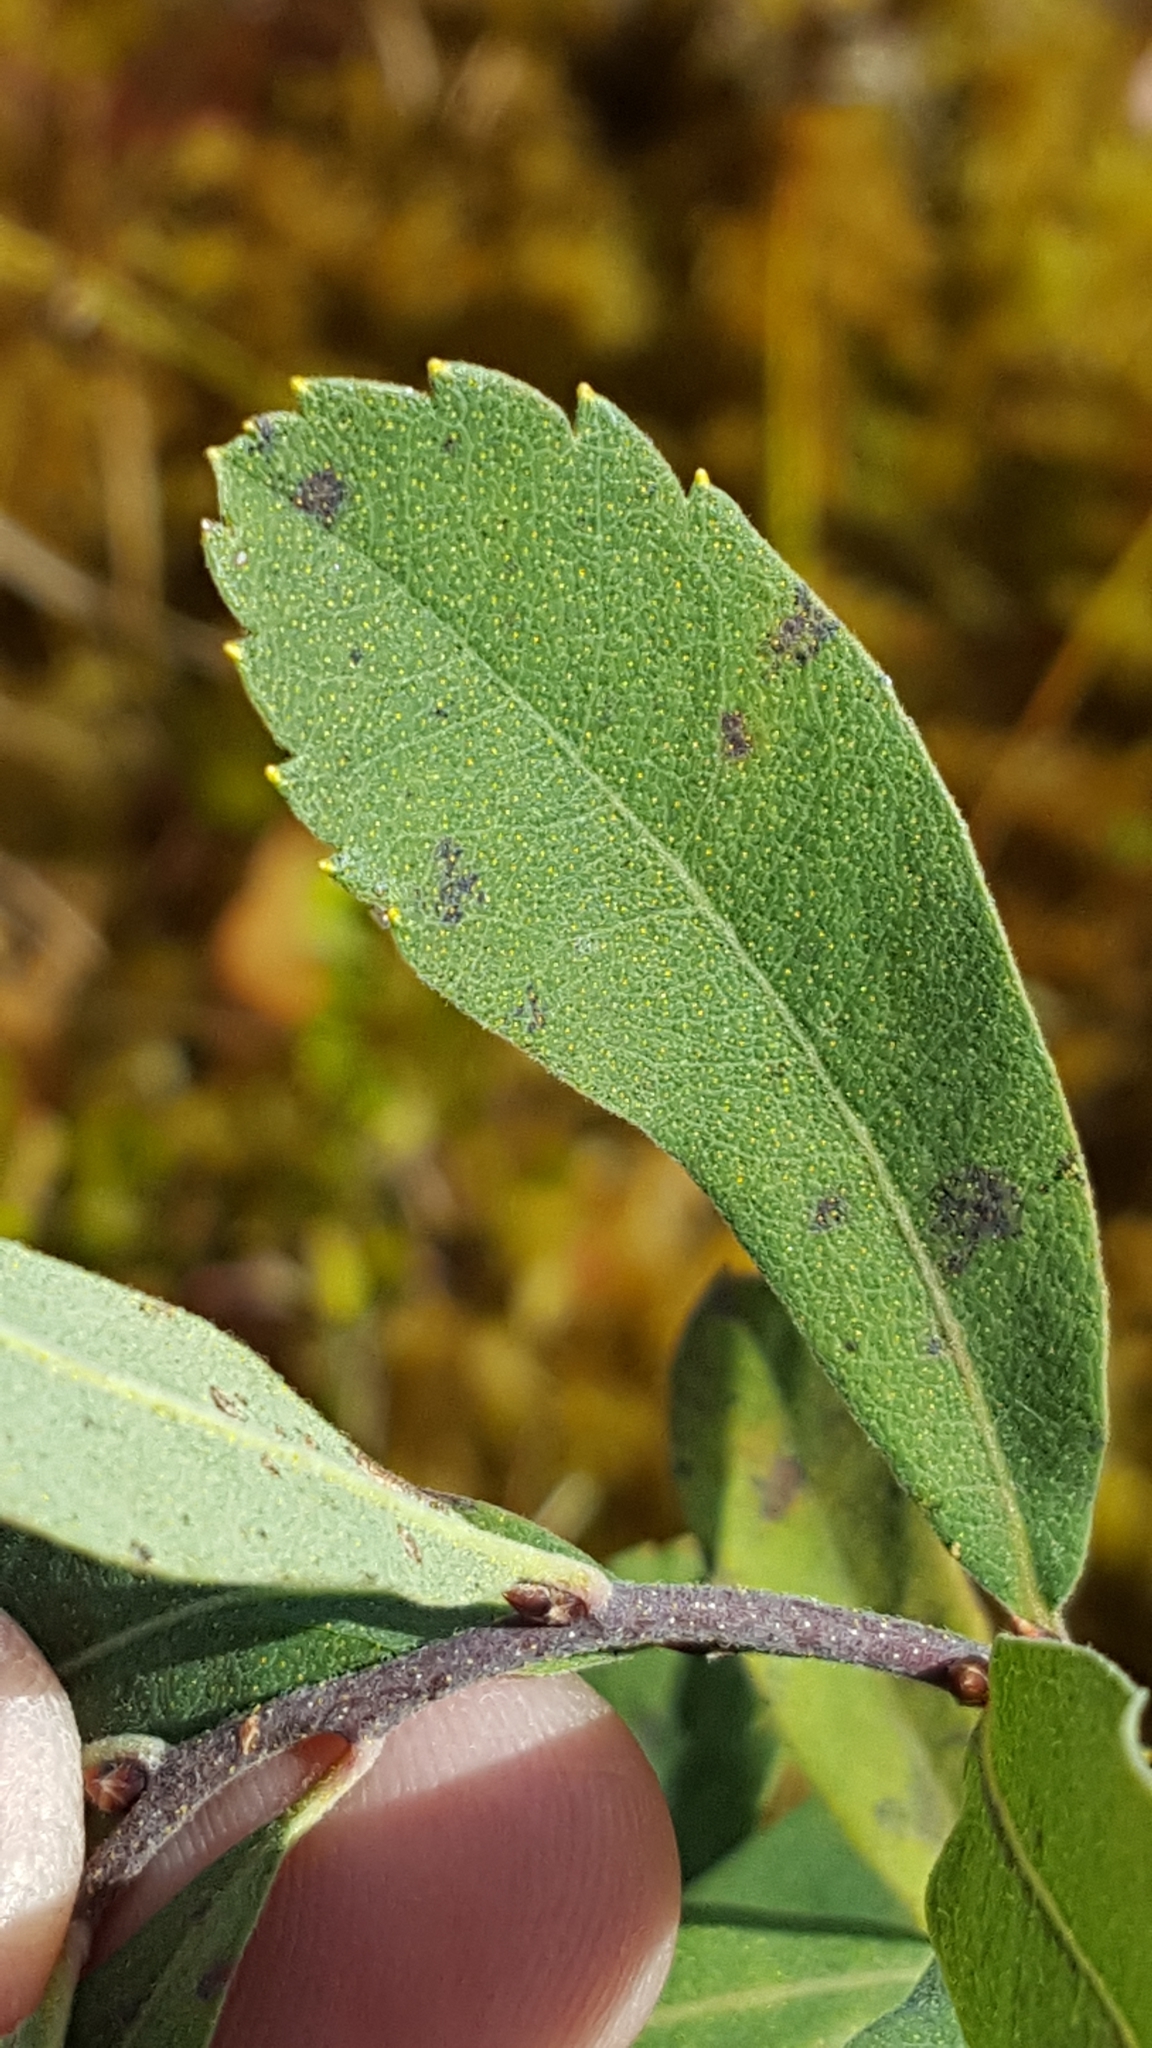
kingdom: Plantae
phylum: Tracheophyta
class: Magnoliopsida
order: Fagales
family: Myricaceae
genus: Myrica
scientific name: Myrica gale
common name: Sweet gale
